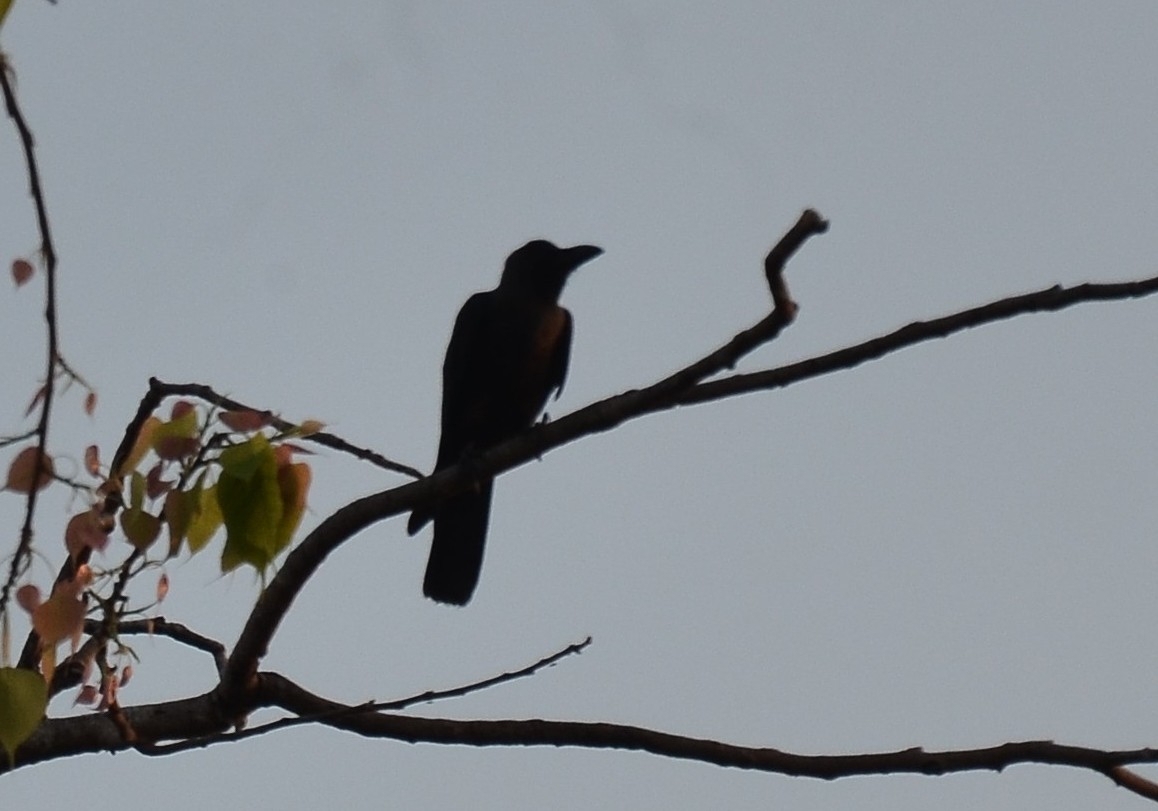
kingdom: Animalia
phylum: Chordata
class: Aves
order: Passeriformes
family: Corvidae
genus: Corvus
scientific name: Corvus macrorhynchos
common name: Large-billed crow
